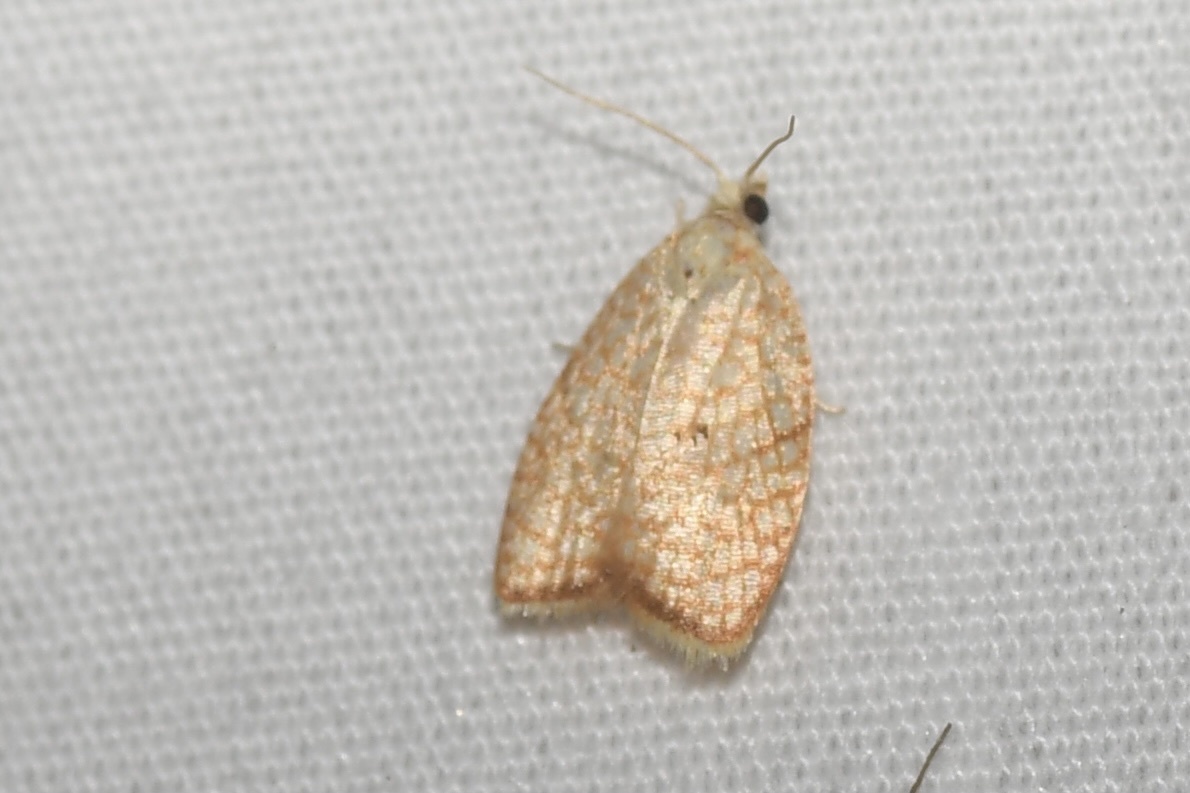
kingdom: Animalia
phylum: Arthropoda
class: Insecta
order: Lepidoptera
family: Tortricidae
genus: Acleris
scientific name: Acleris forsskaleana
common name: Maple button
